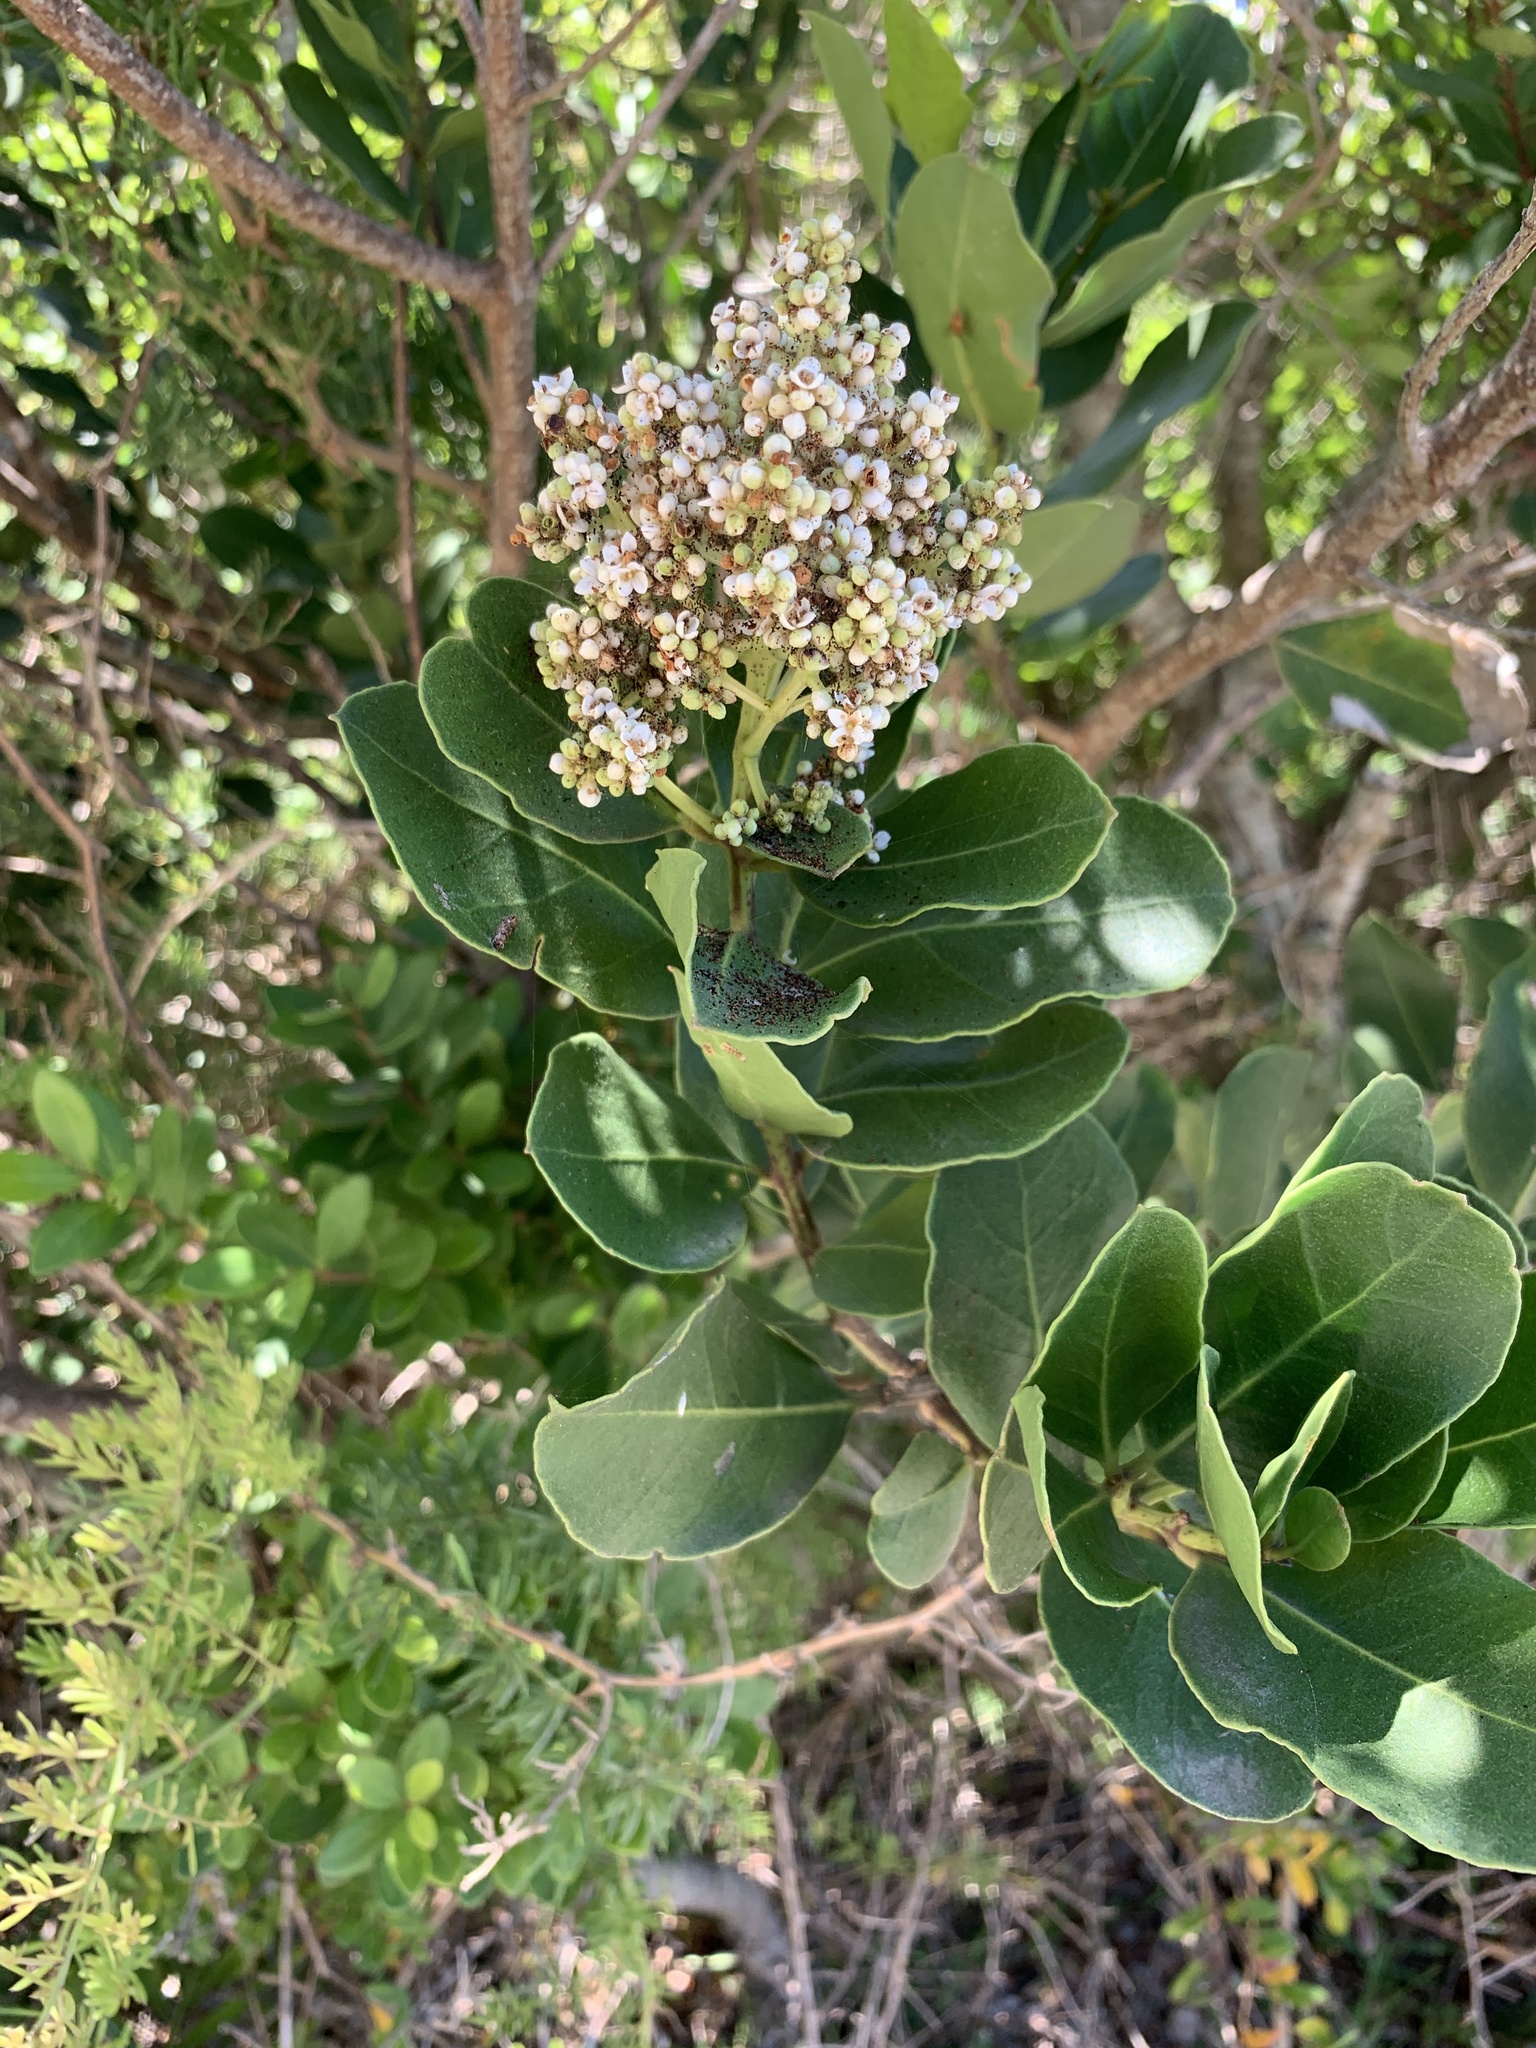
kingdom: Plantae
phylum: Tracheophyta
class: Magnoliopsida
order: Lamiales
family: Oleaceae
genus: Olea
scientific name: Olea capensis
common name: Black ironwood
